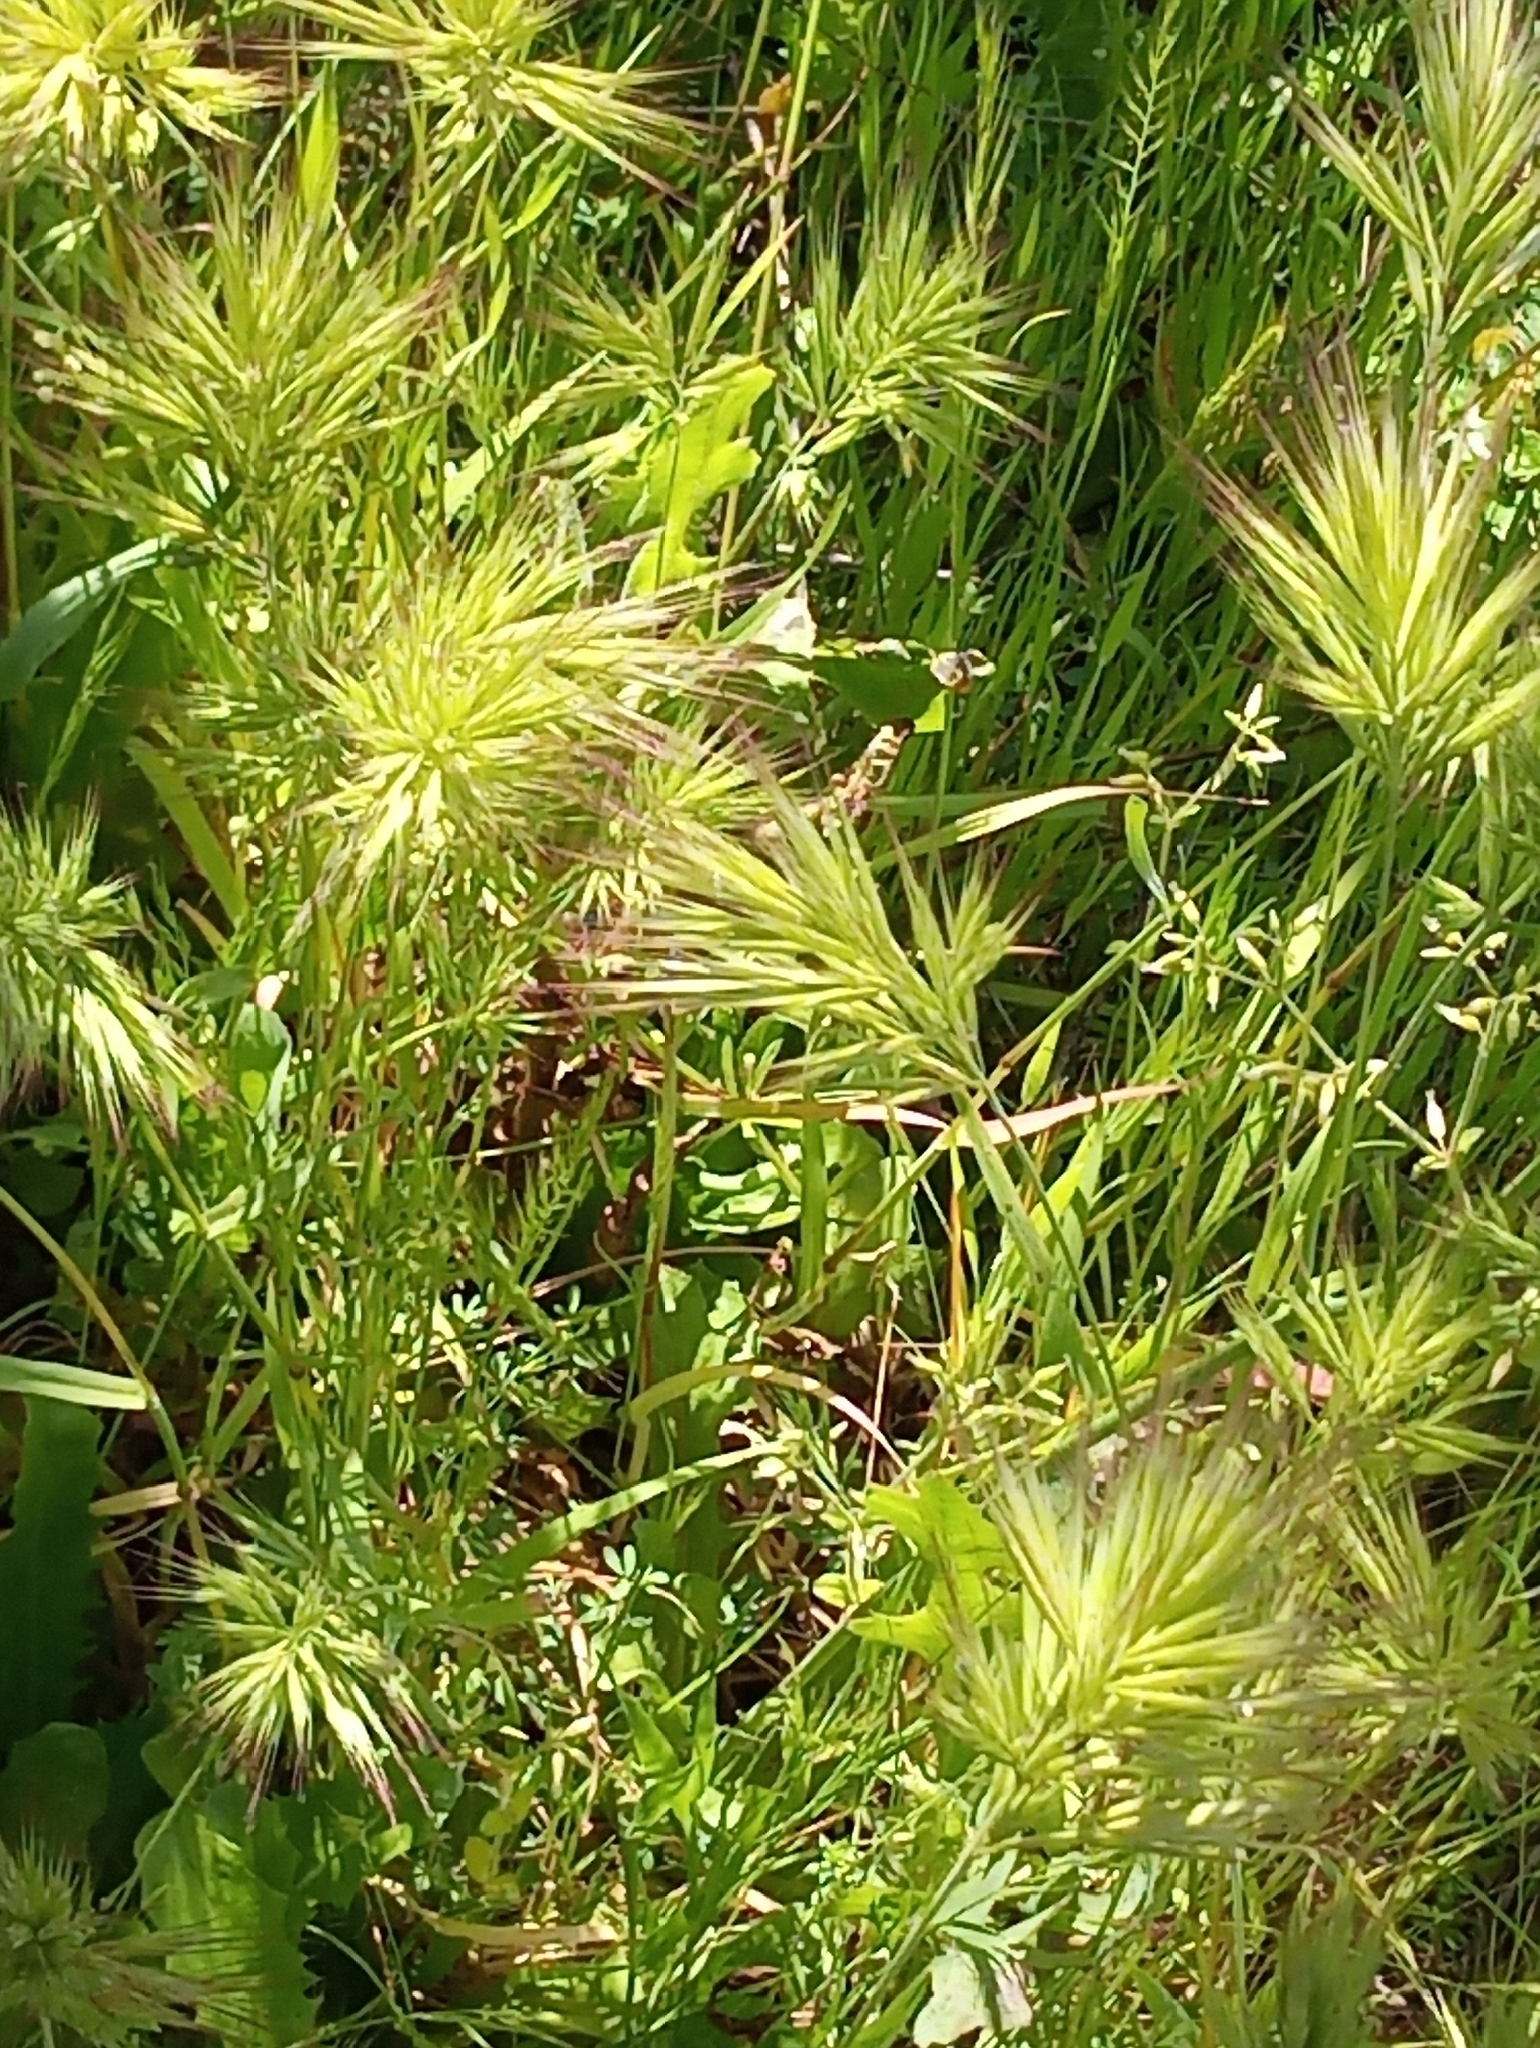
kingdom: Plantae
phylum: Tracheophyta
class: Liliopsida
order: Poales
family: Poaceae
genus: Bromus
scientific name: Bromus madritensis
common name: Compact brome
